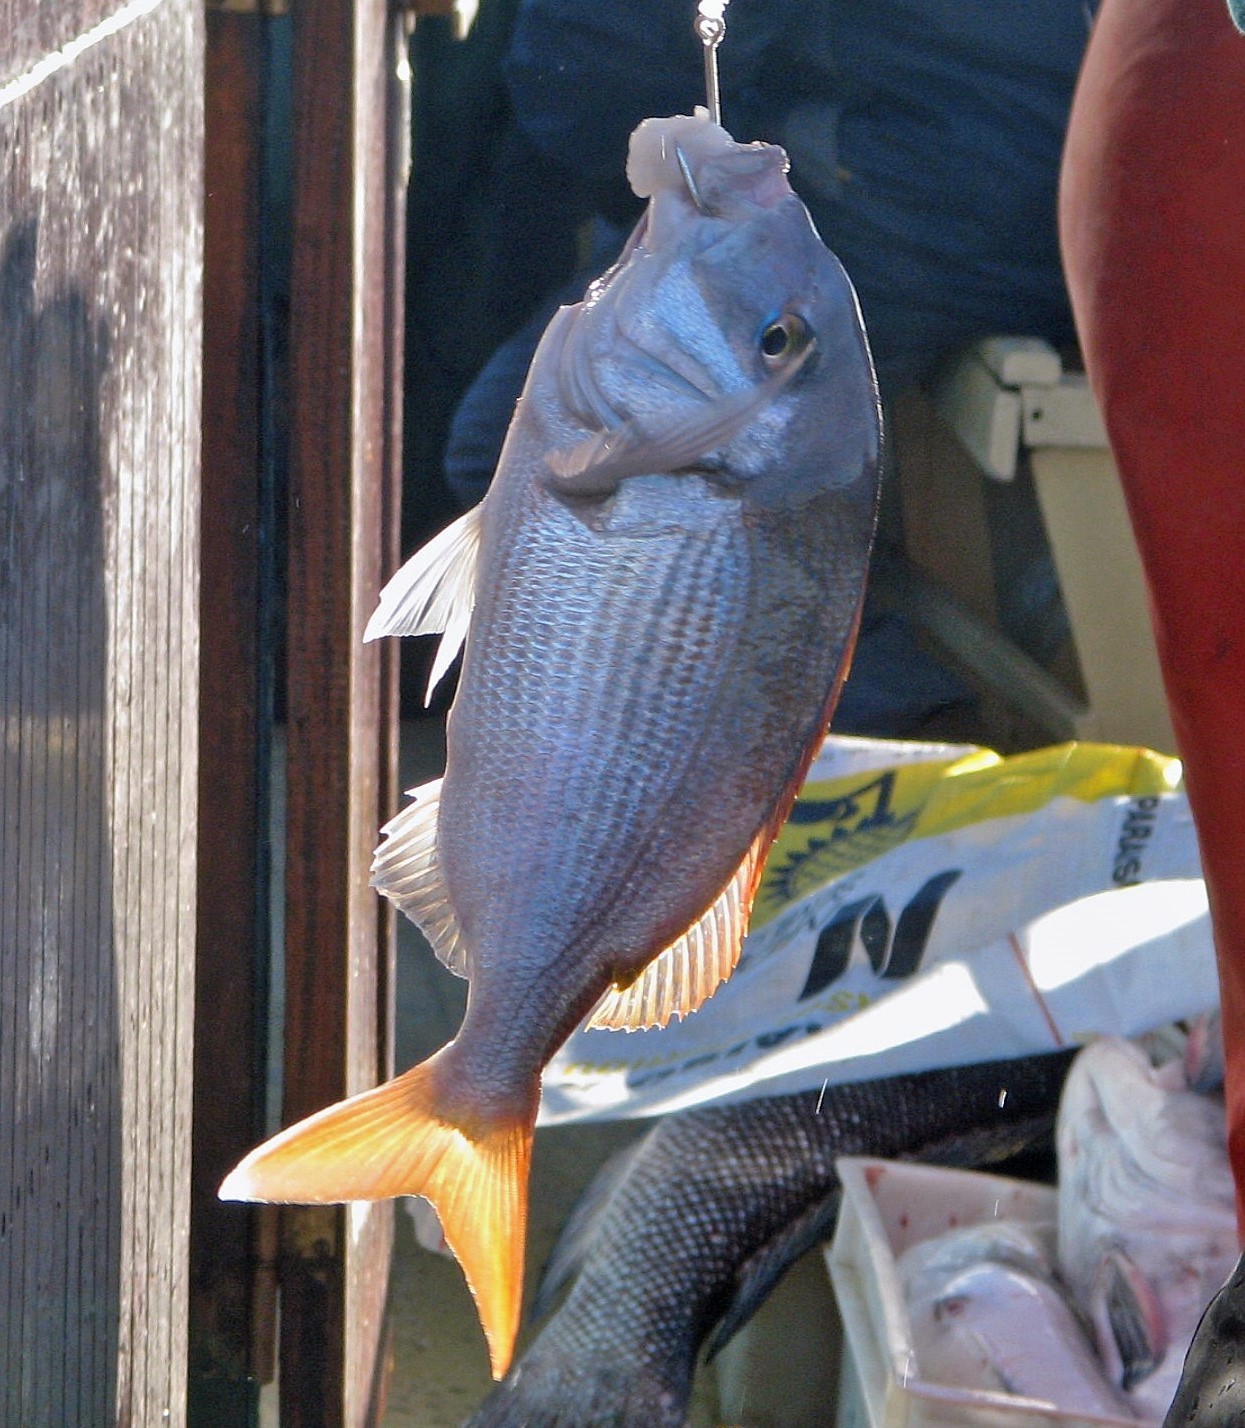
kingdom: Animalia
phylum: Chordata
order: Perciformes
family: Sparidae
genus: Pagrus
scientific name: Pagrus pagrus
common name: Red porgy
